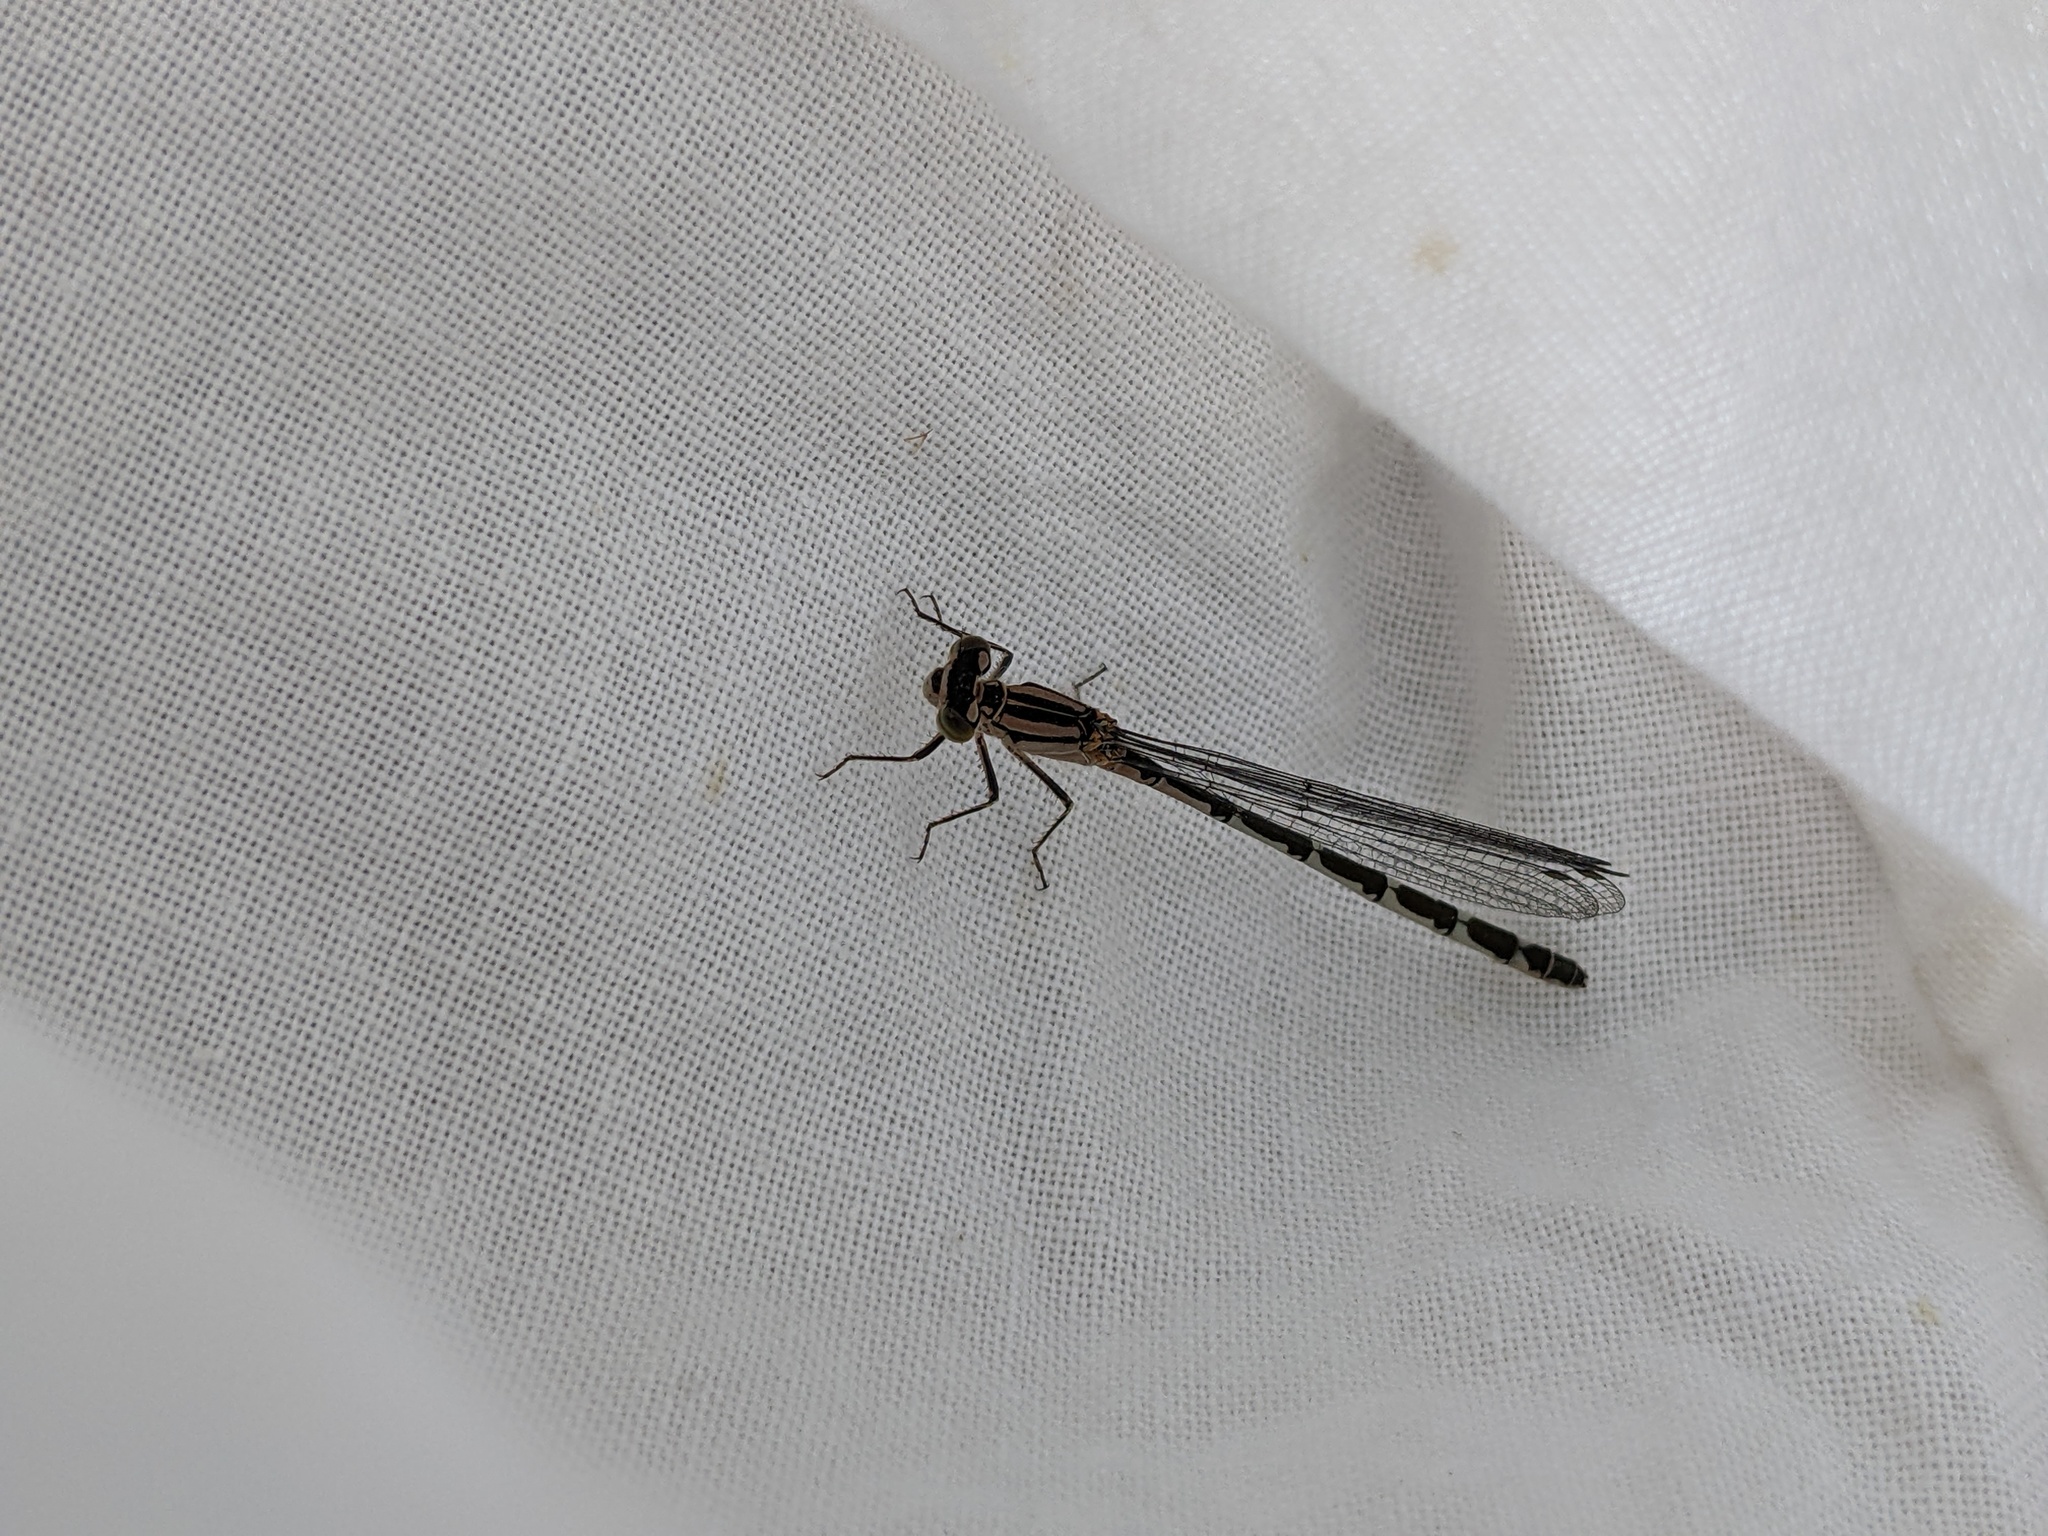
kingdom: Animalia
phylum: Arthropoda
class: Insecta
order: Odonata
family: Coenagrionidae
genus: Enallagma
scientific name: Enallagma cyathigerum
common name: Common blue damselfly
